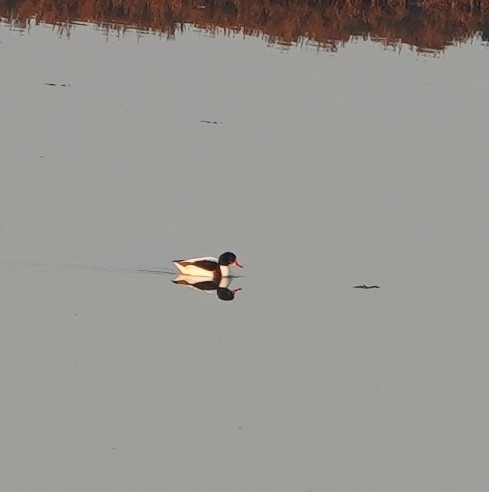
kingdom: Animalia
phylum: Chordata
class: Aves
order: Anseriformes
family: Anatidae
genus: Tadorna
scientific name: Tadorna tadorna
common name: Common shelduck
